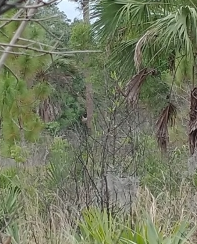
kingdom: Animalia
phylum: Chordata
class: Aves
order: Passeriformes
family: Passerellidae
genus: Pipilo
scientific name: Pipilo erythrophthalmus
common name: Eastern towhee
